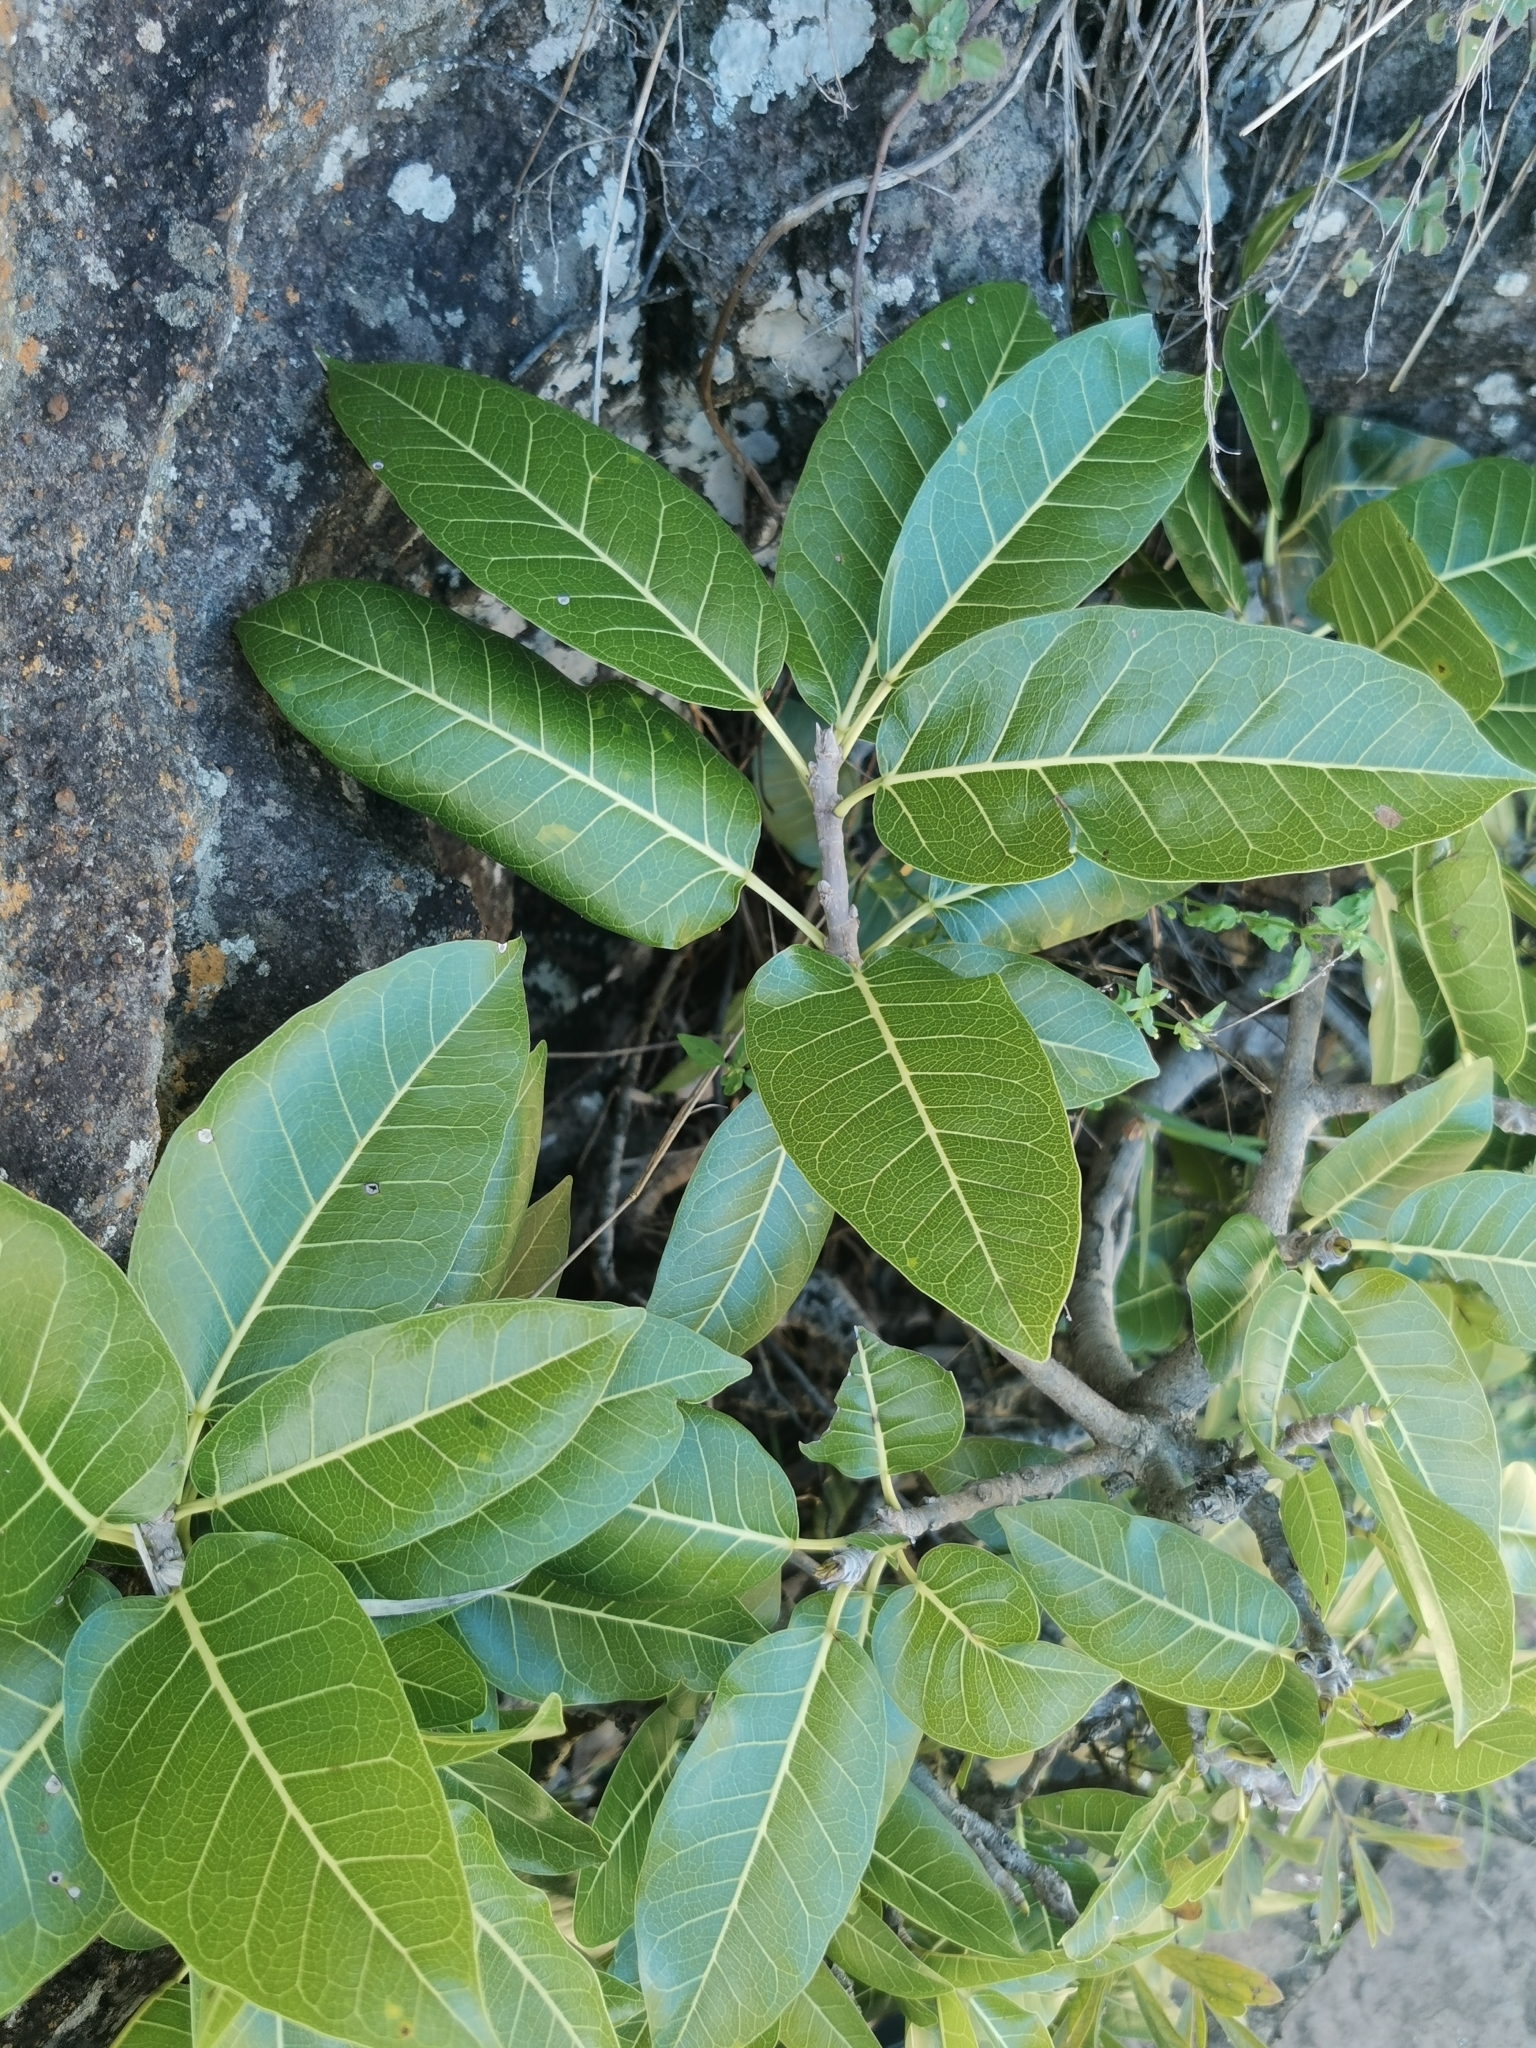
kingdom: Plantae
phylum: Tracheophyta
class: Magnoliopsida
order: Rosales
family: Moraceae
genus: Ficus
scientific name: Ficus ingens
